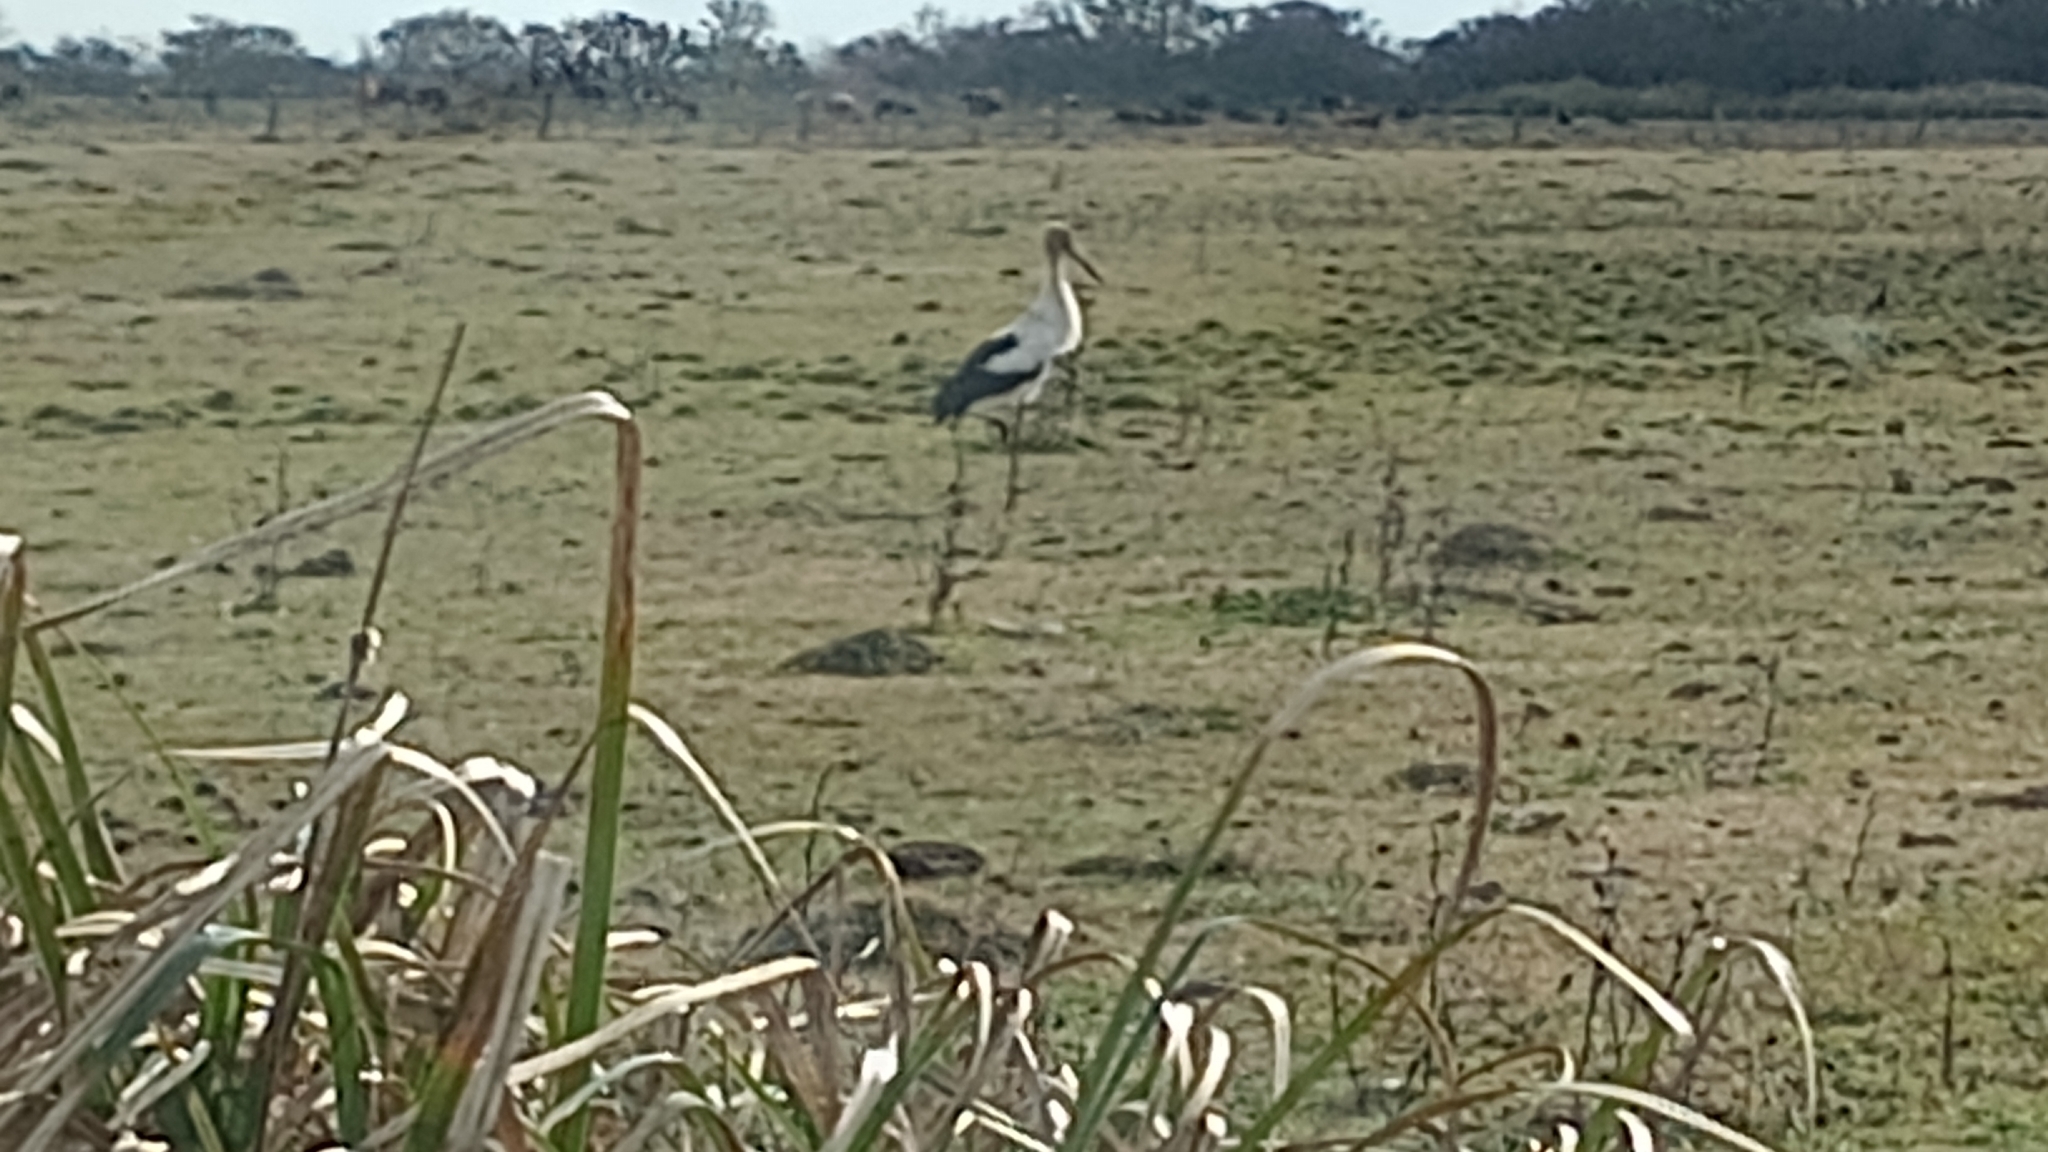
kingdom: Animalia
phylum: Chordata
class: Aves
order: Ciconiiformes
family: Ciconiidae
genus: Ciconia
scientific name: Ciconia maguari
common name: Maguari stork
